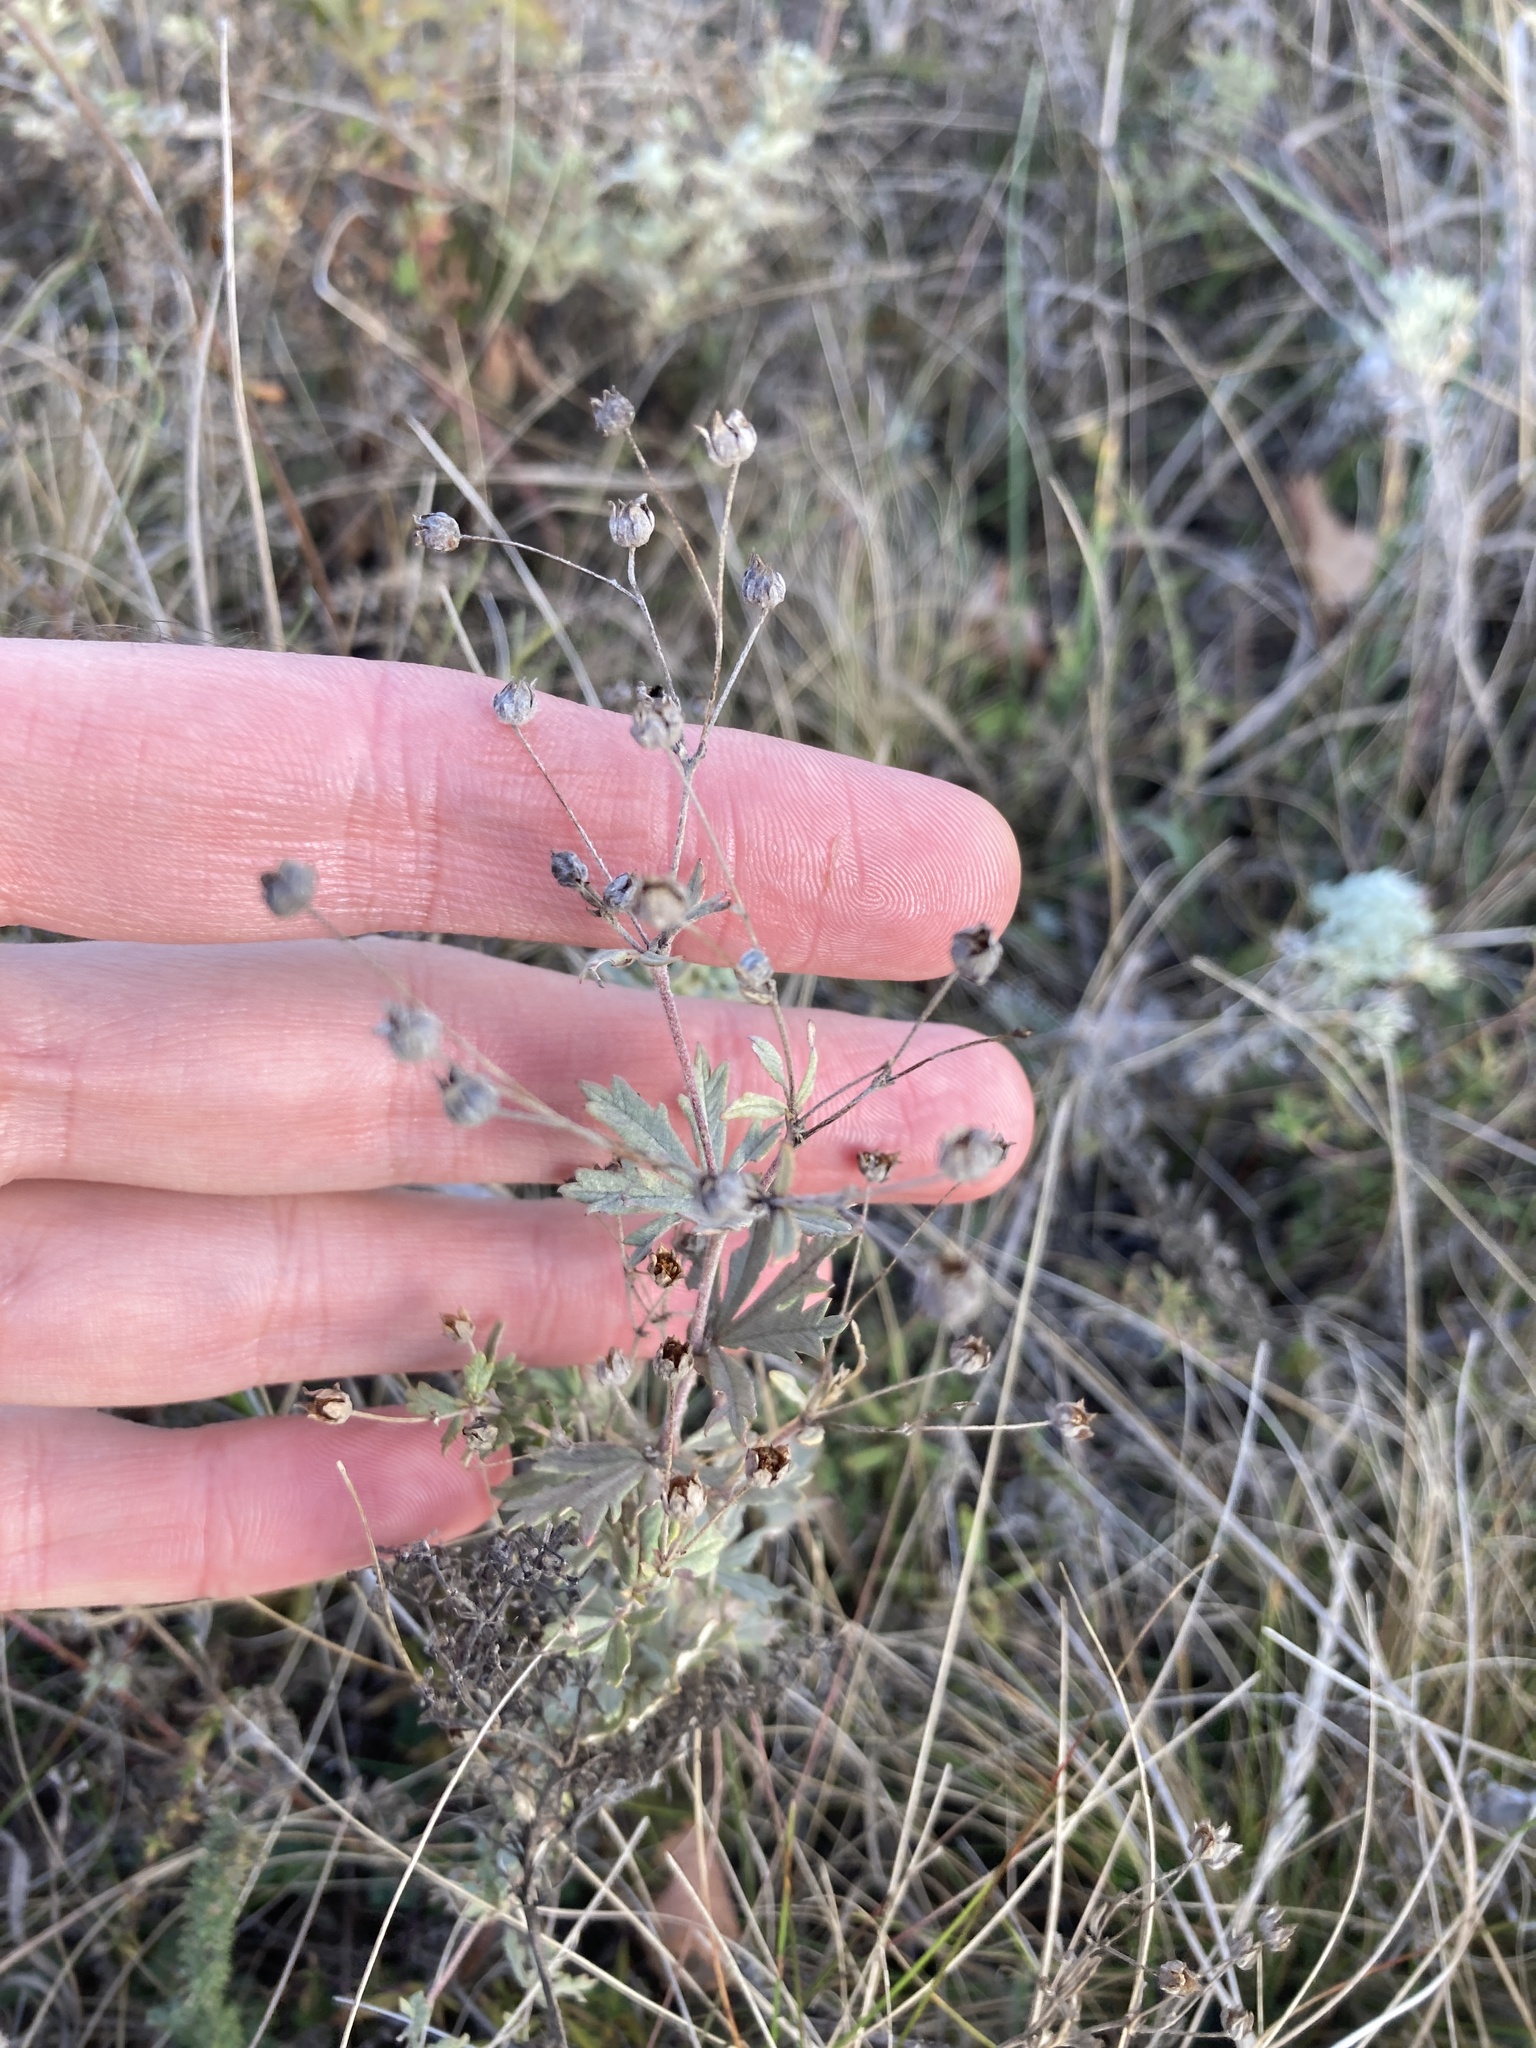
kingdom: Plantae
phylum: Tracheophyta
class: Magnoliopsida
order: Rosales
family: Rosaceae
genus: Potentilla
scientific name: Potentilla argentea
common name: Hoary cinquefoil
